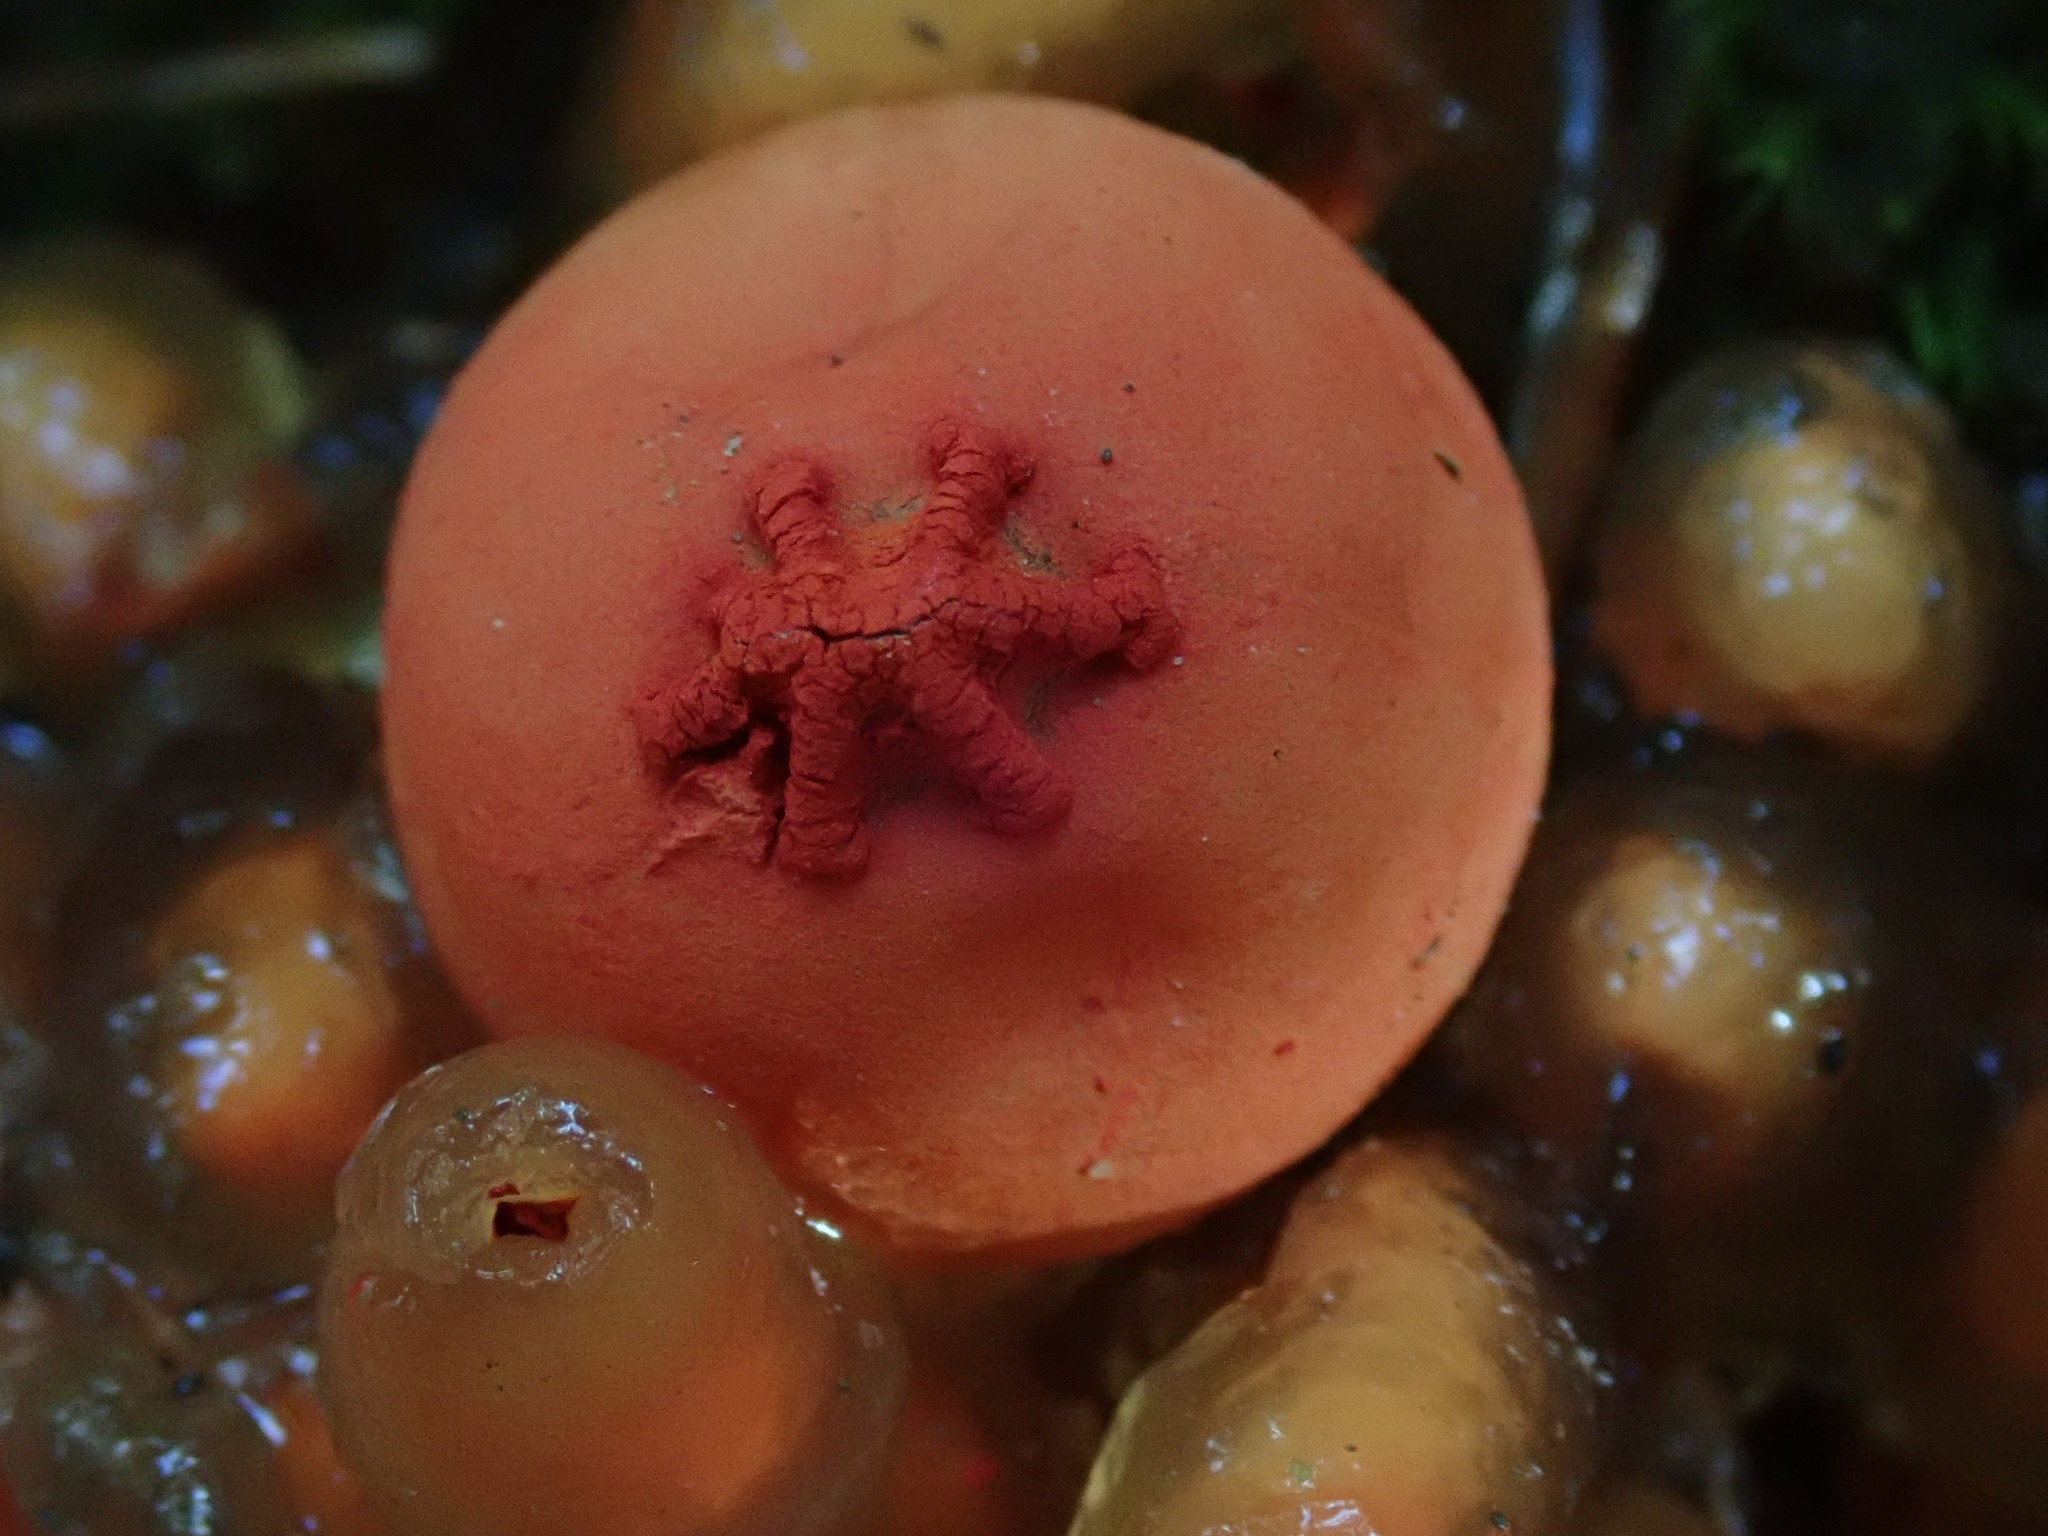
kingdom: Fungi
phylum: Basidiomycota
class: Agaricomycetes
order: Boletales
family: Calostomataceae
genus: Calostoma
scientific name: Calostoma cinnabarinum
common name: Stalked puffball-in-aspic
